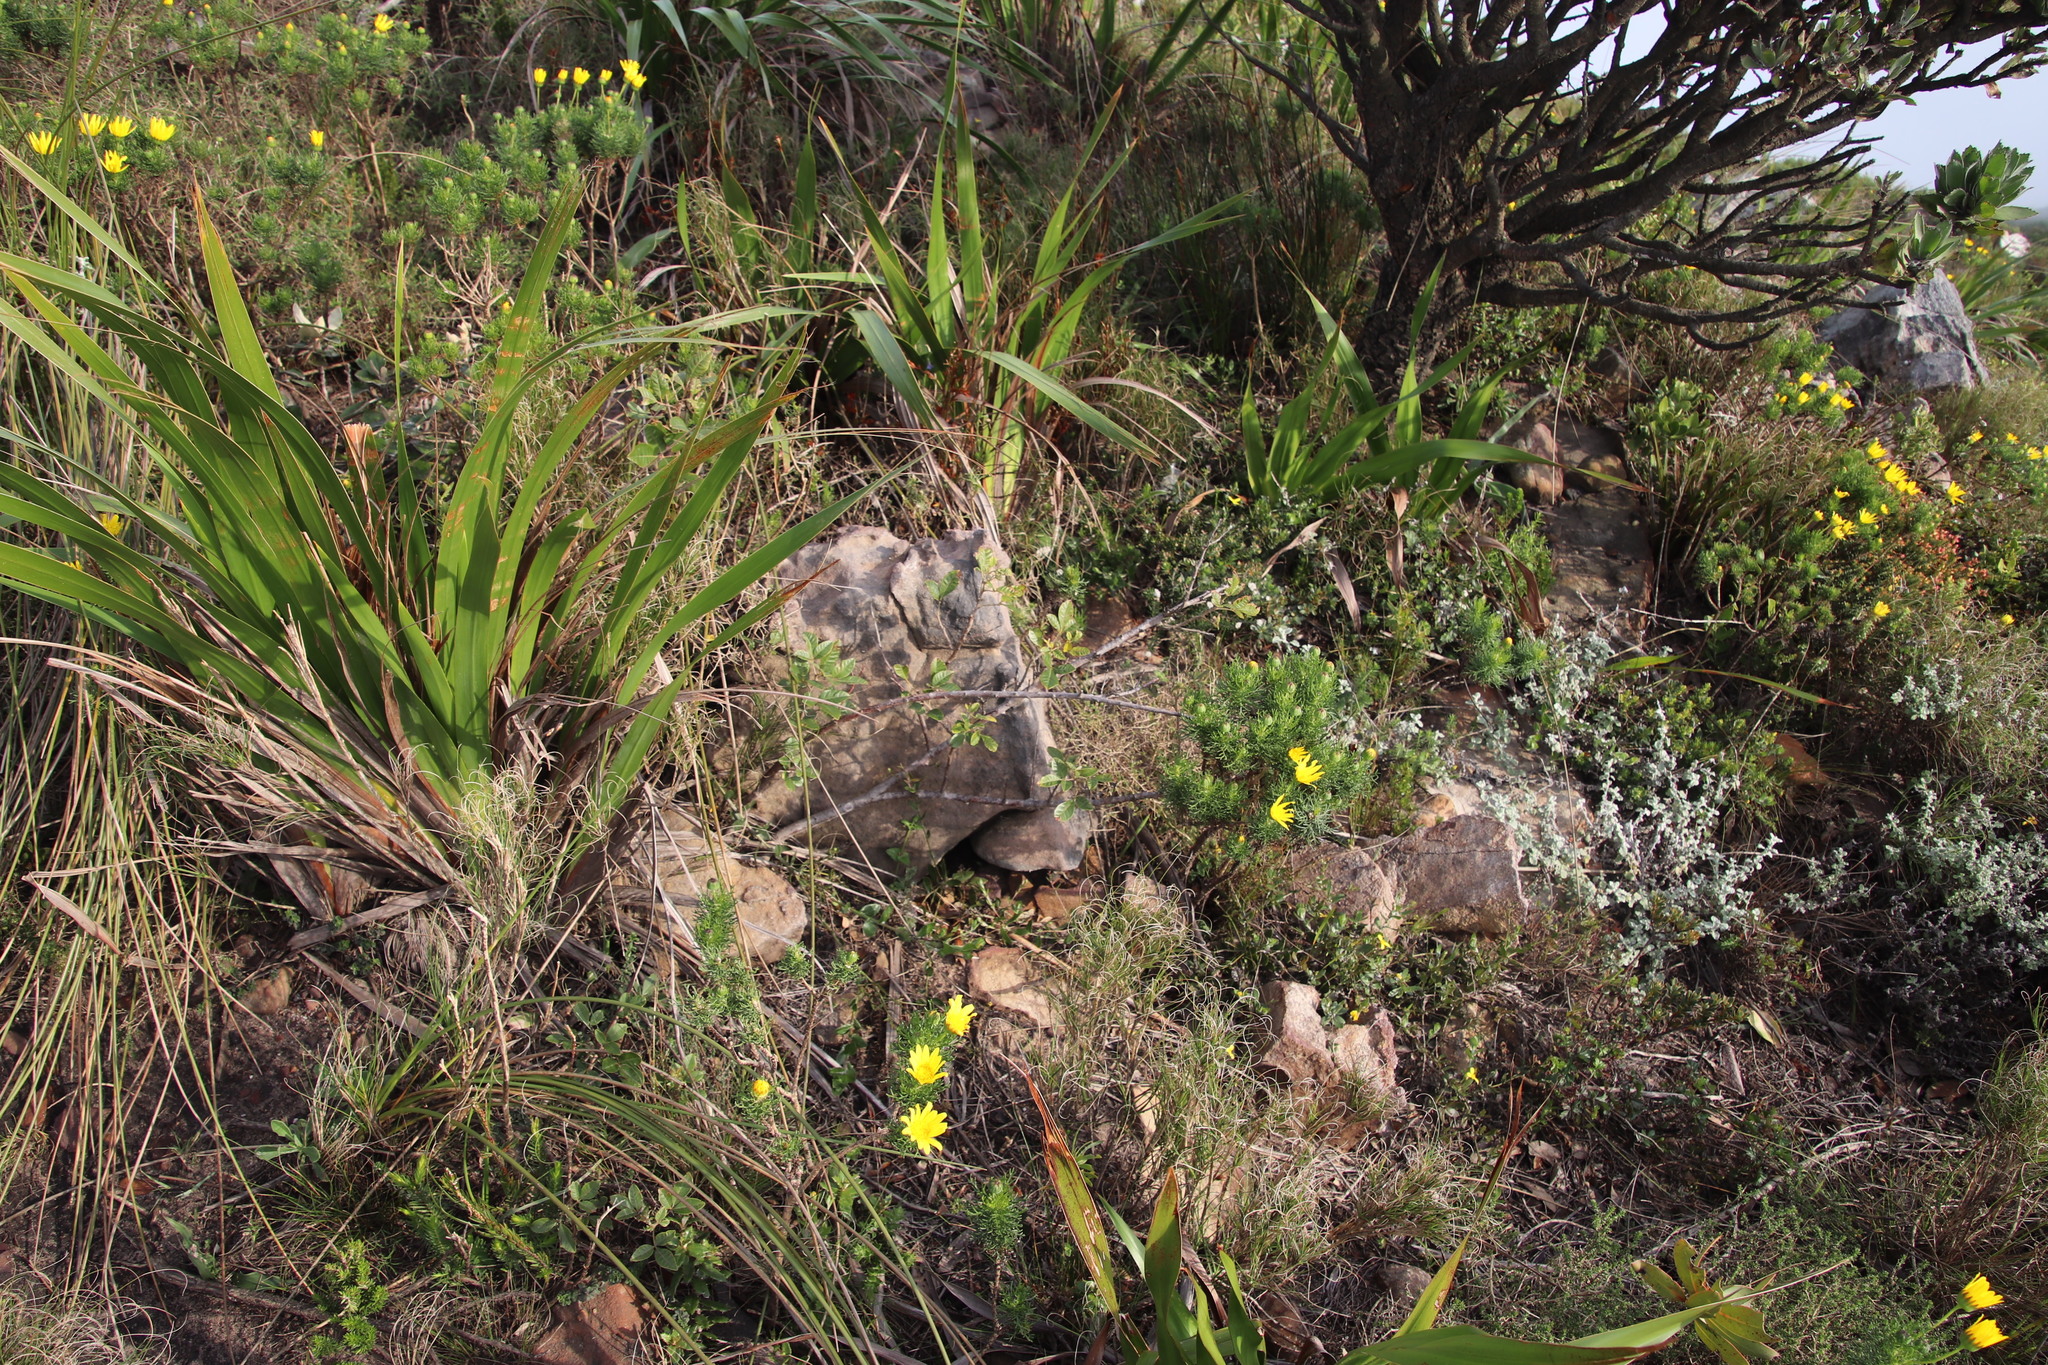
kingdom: Plantae
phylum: Tracheophyta
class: Magnoliopsida
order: Sapindales
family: Anacardiaceae
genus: Searsia
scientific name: Searsia tomentosa
